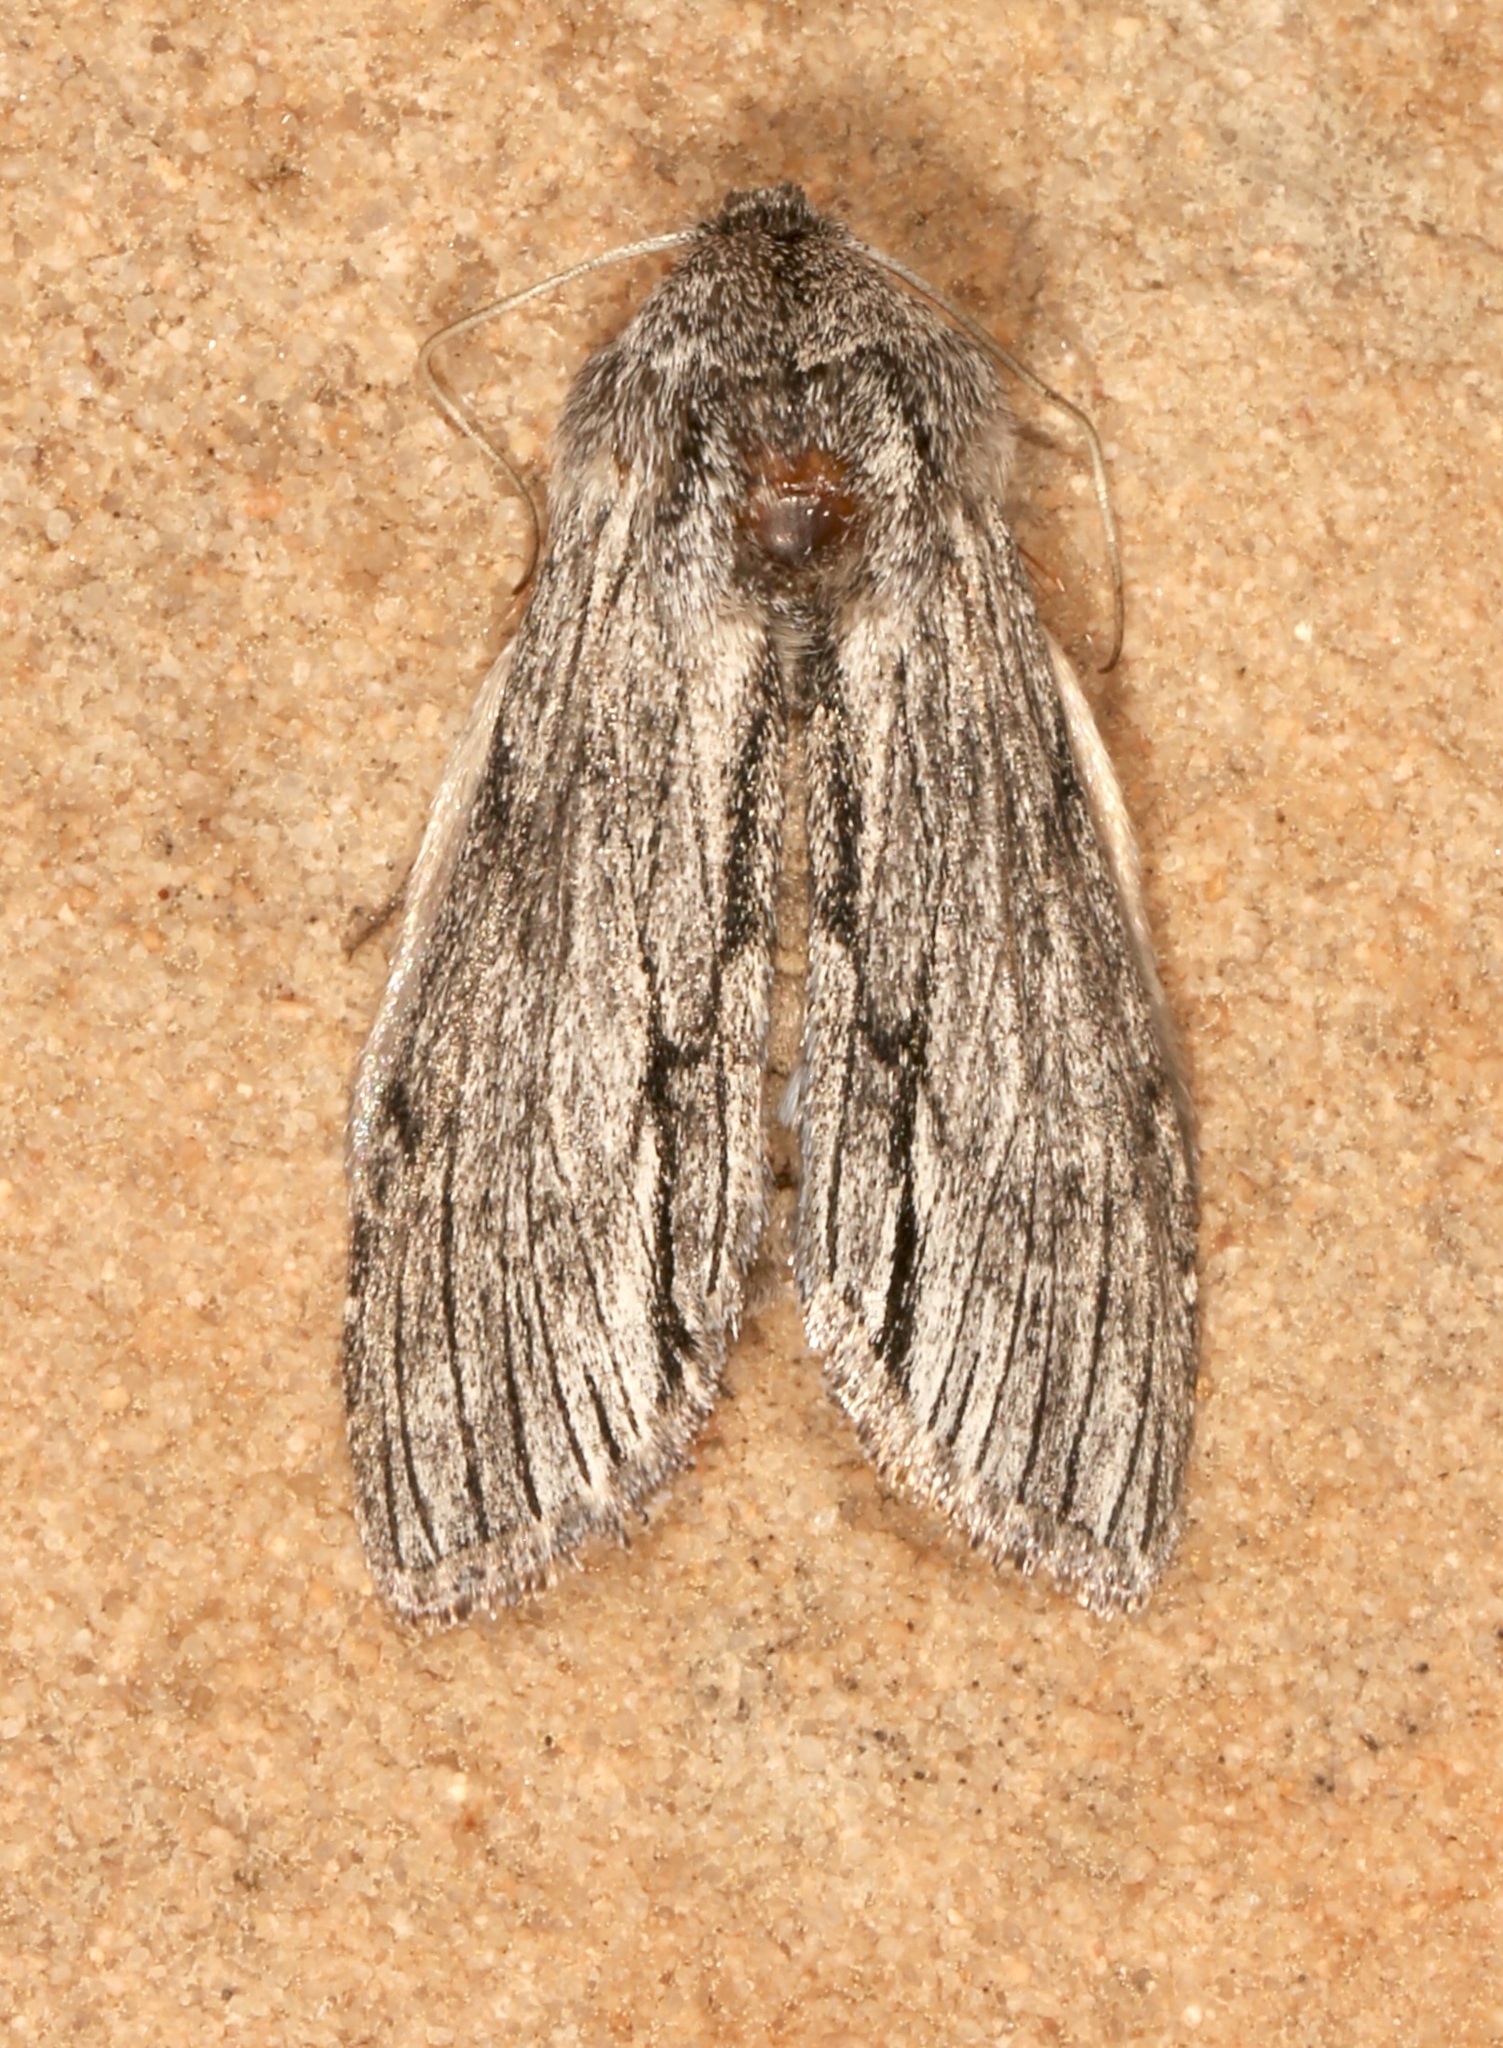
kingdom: Animalia
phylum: Arthropoda
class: Insecta
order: Lepidoptera
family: Noctuidae
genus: Cucullia
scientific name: Cucullia eulepis
